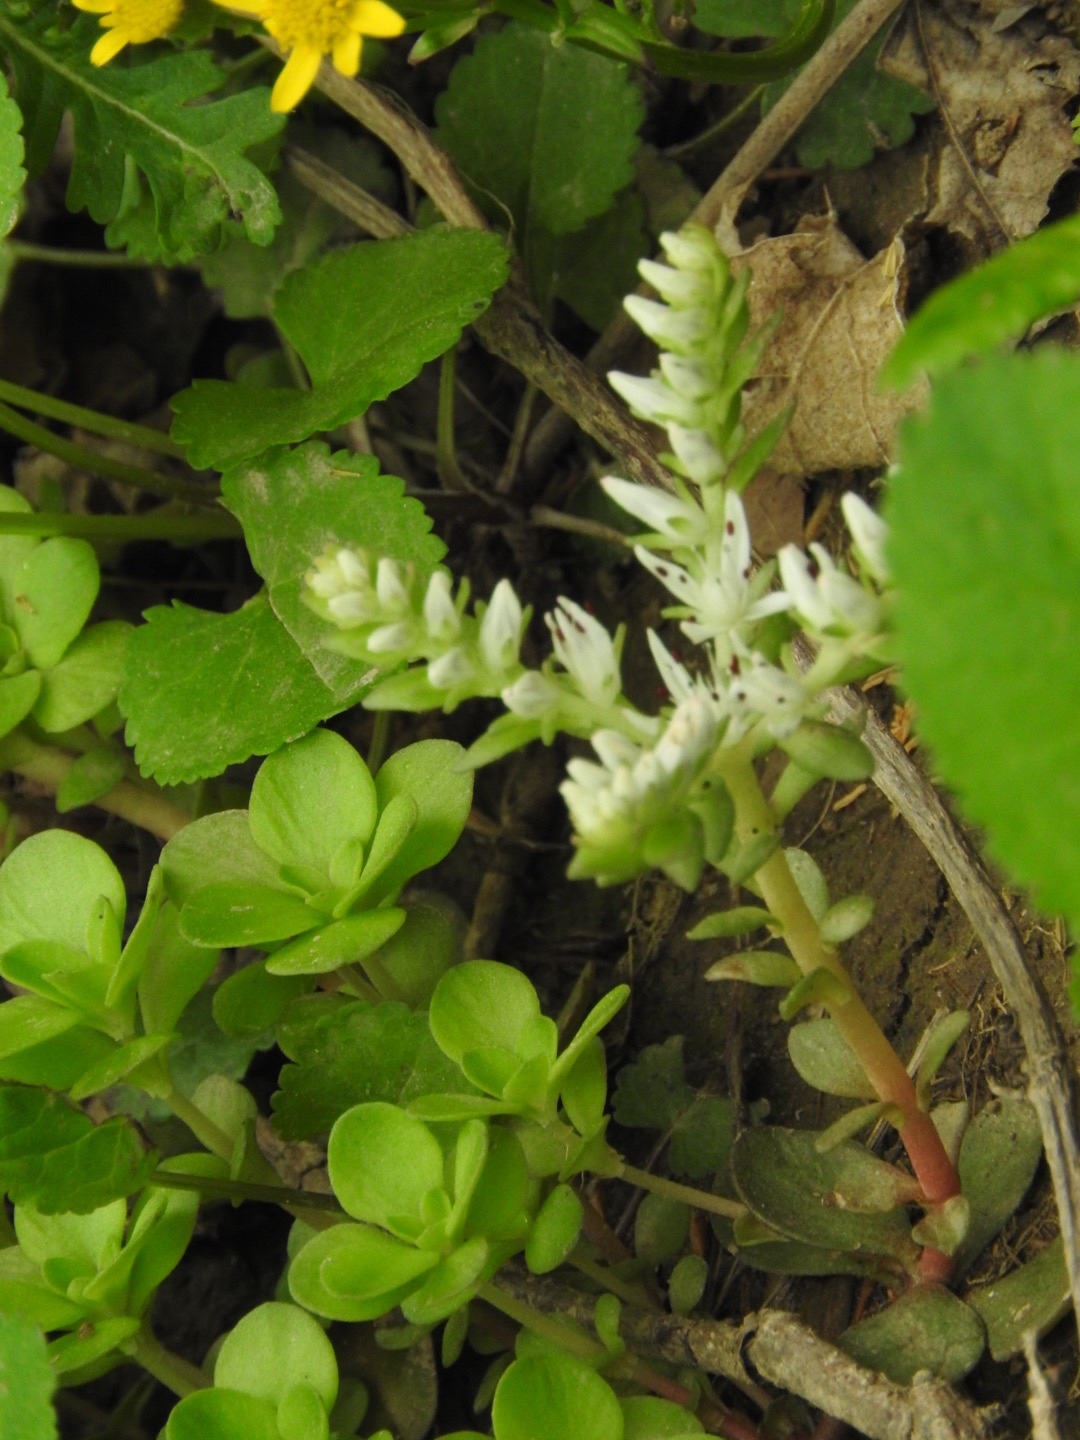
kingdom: Plantae
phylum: Tracheophyta
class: Magnoliopsida
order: Saxifragales
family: Crassulaceae
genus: Sedum
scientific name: Sedum ternatum
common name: Wild stonecrop
